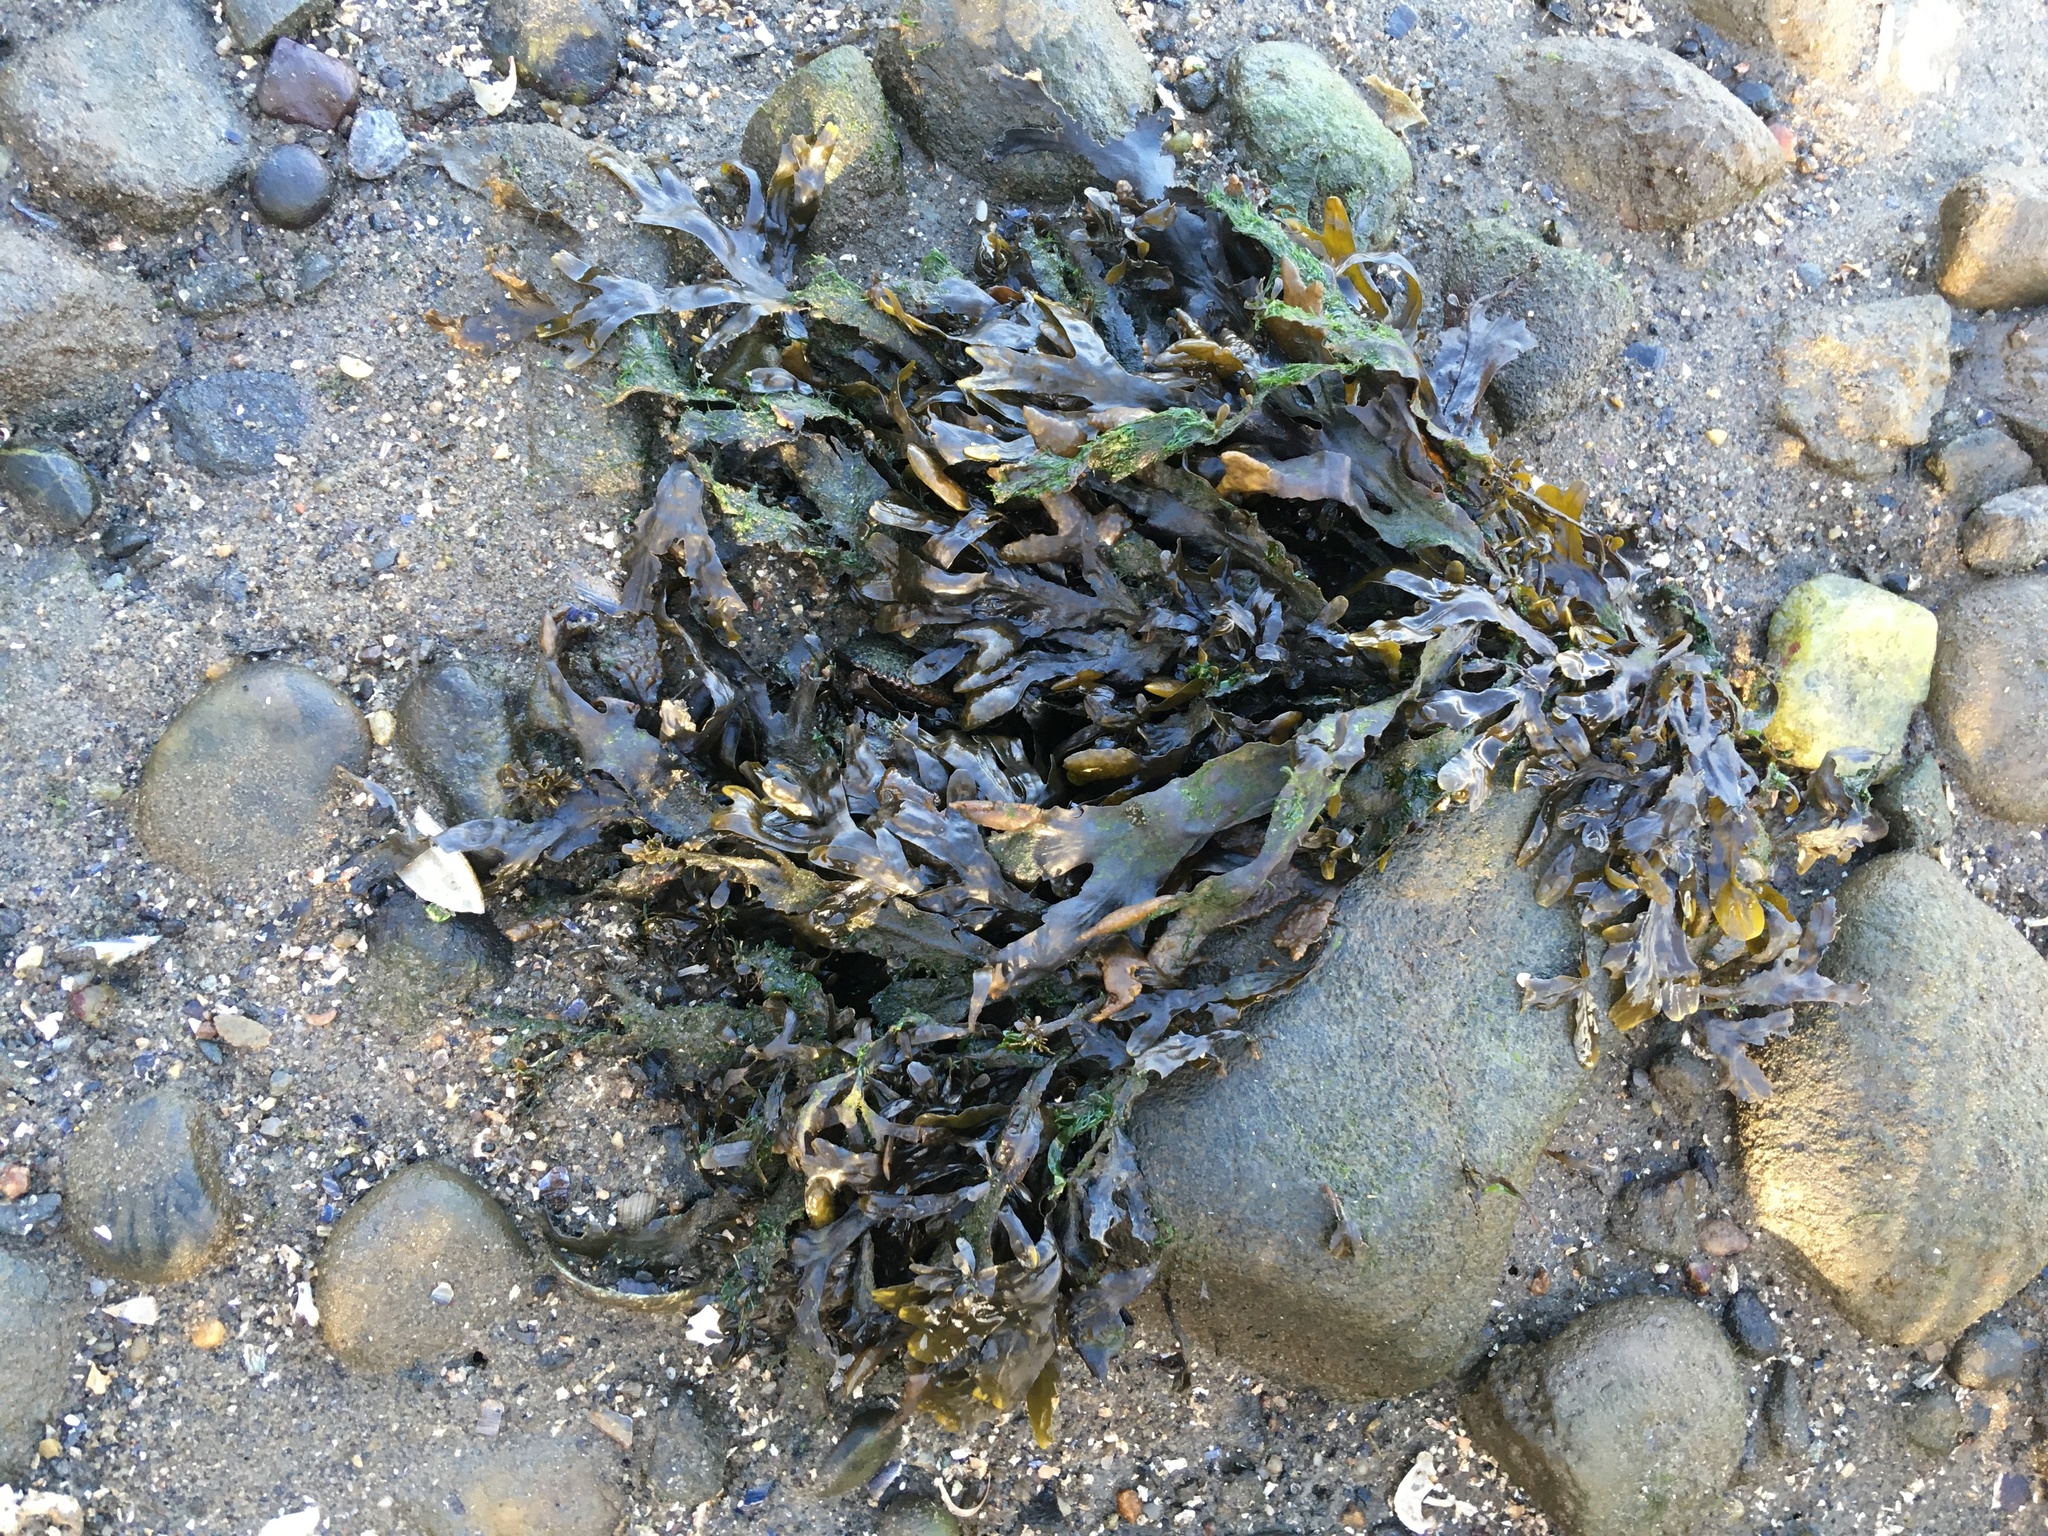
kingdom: Chromista
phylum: Ochrophyta
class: Phaeophyceae
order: Fucales
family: Fucaceae
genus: Fucus
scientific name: Fucus vesiculosus
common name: Bladder wrack
